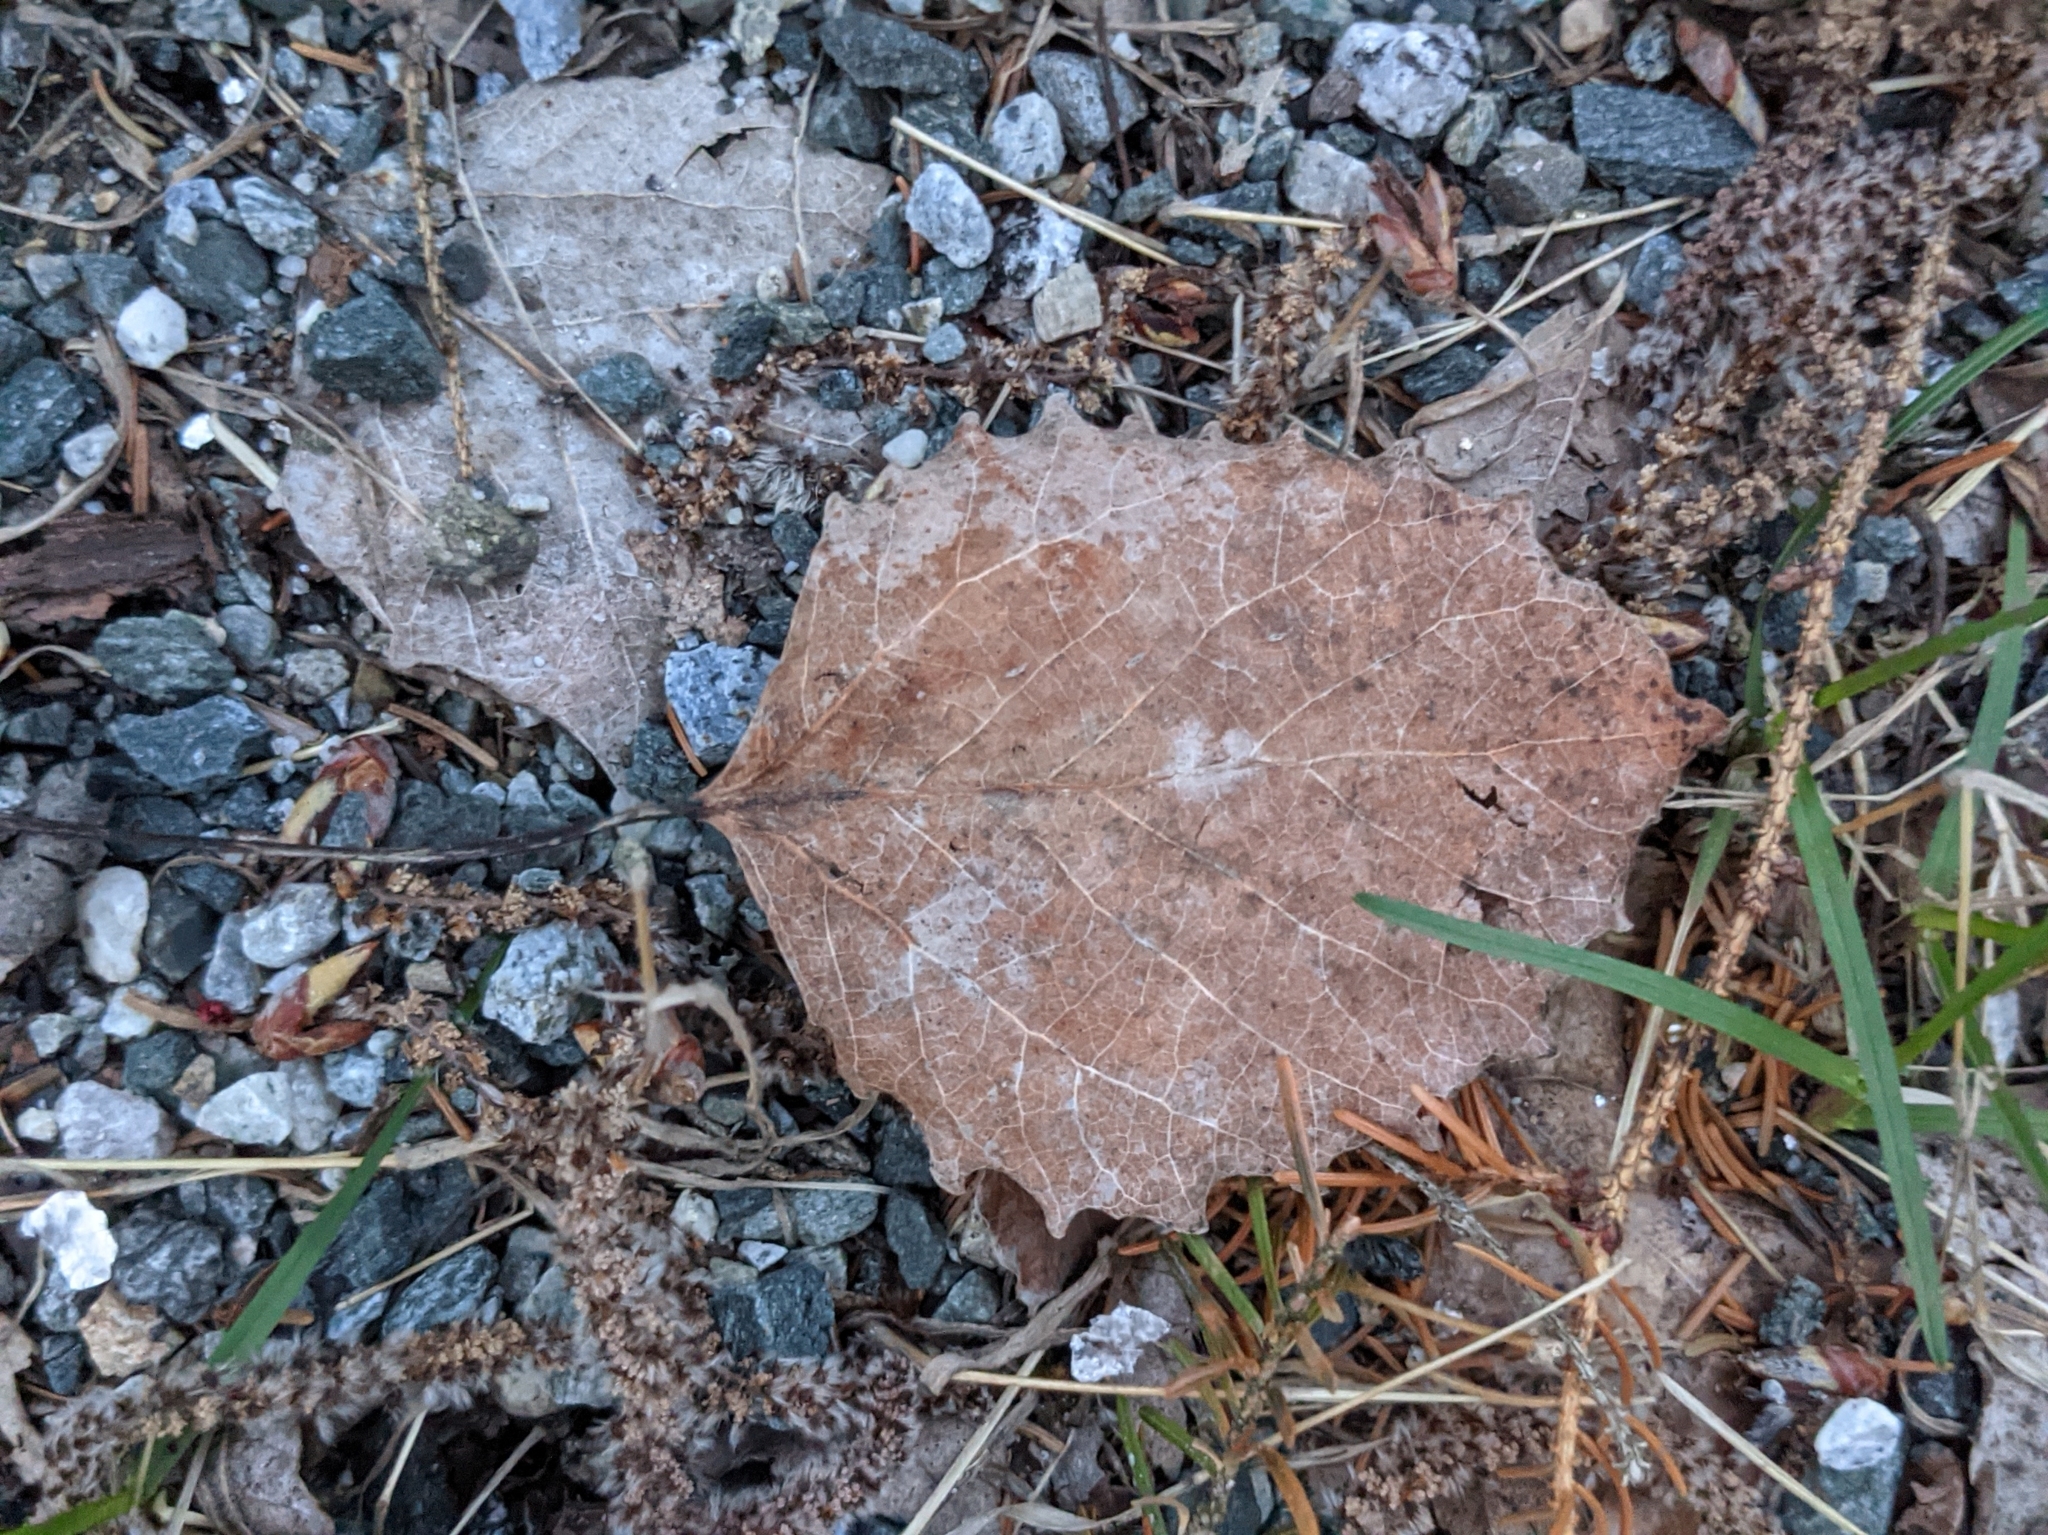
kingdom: Plantae
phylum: Tracheophyta
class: Magnoliopsida
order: Malpighiales
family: Salicaceae
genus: Populus
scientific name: Populus grandidentata
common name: Bigtooth aspen
